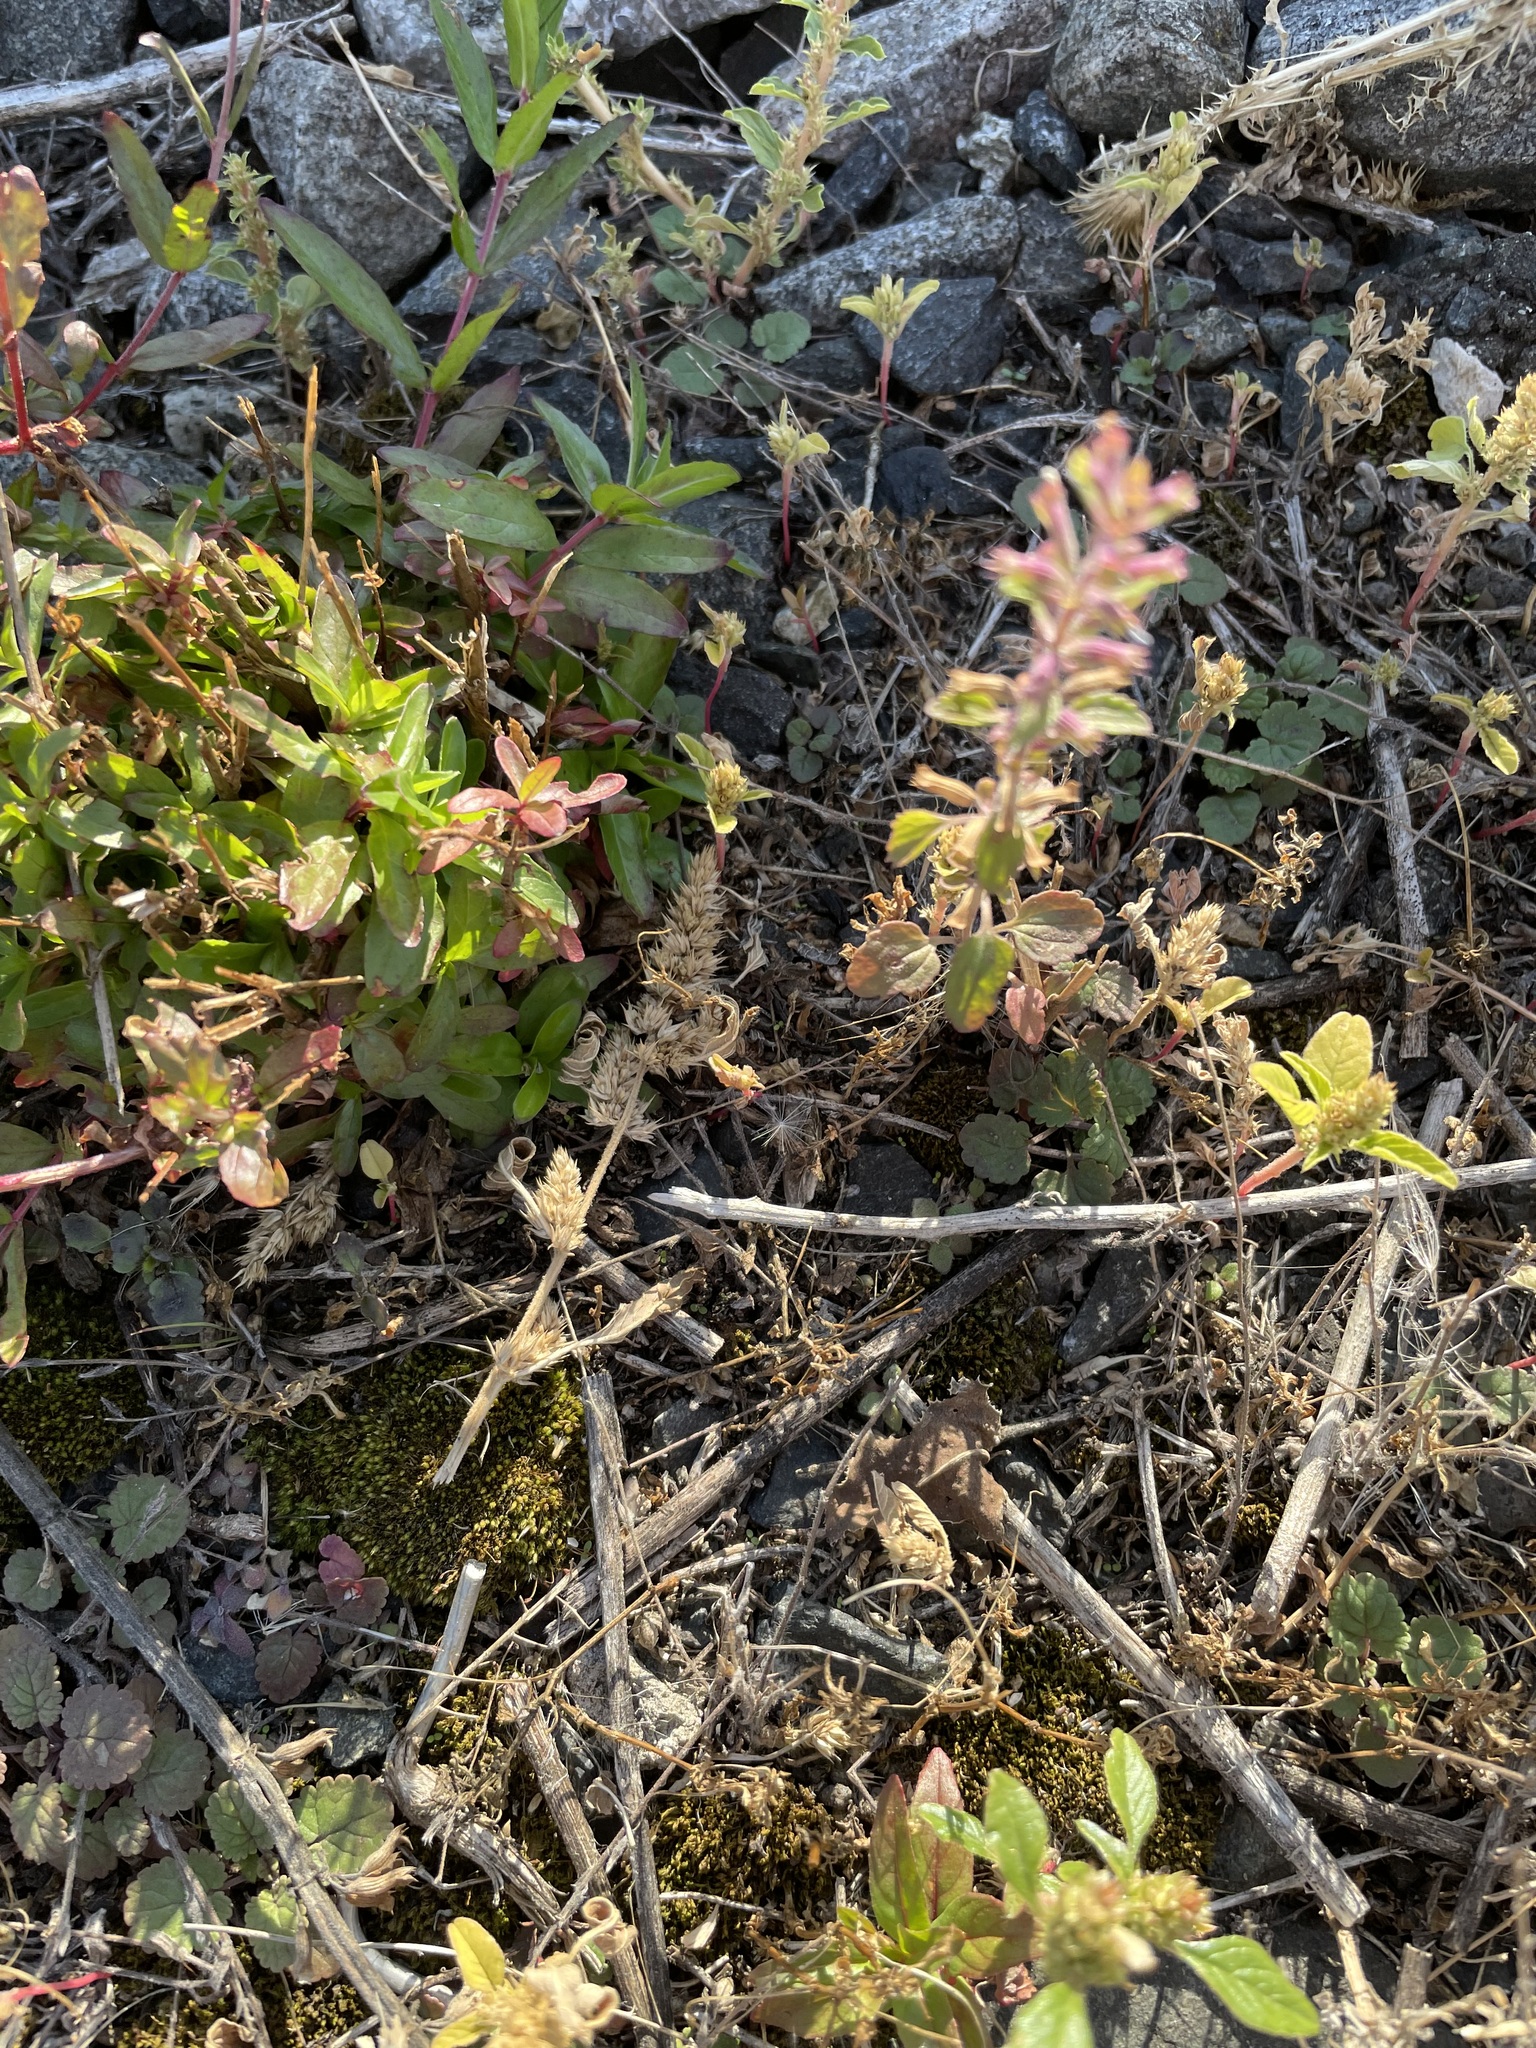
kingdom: Plantae
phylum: Tracheophyta
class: Magnoliopsida
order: Lamiales
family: Lamiaceae
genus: Dracocephalum
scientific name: Dracocephalum thymiflorum
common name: Thymeleaf dragonhead
